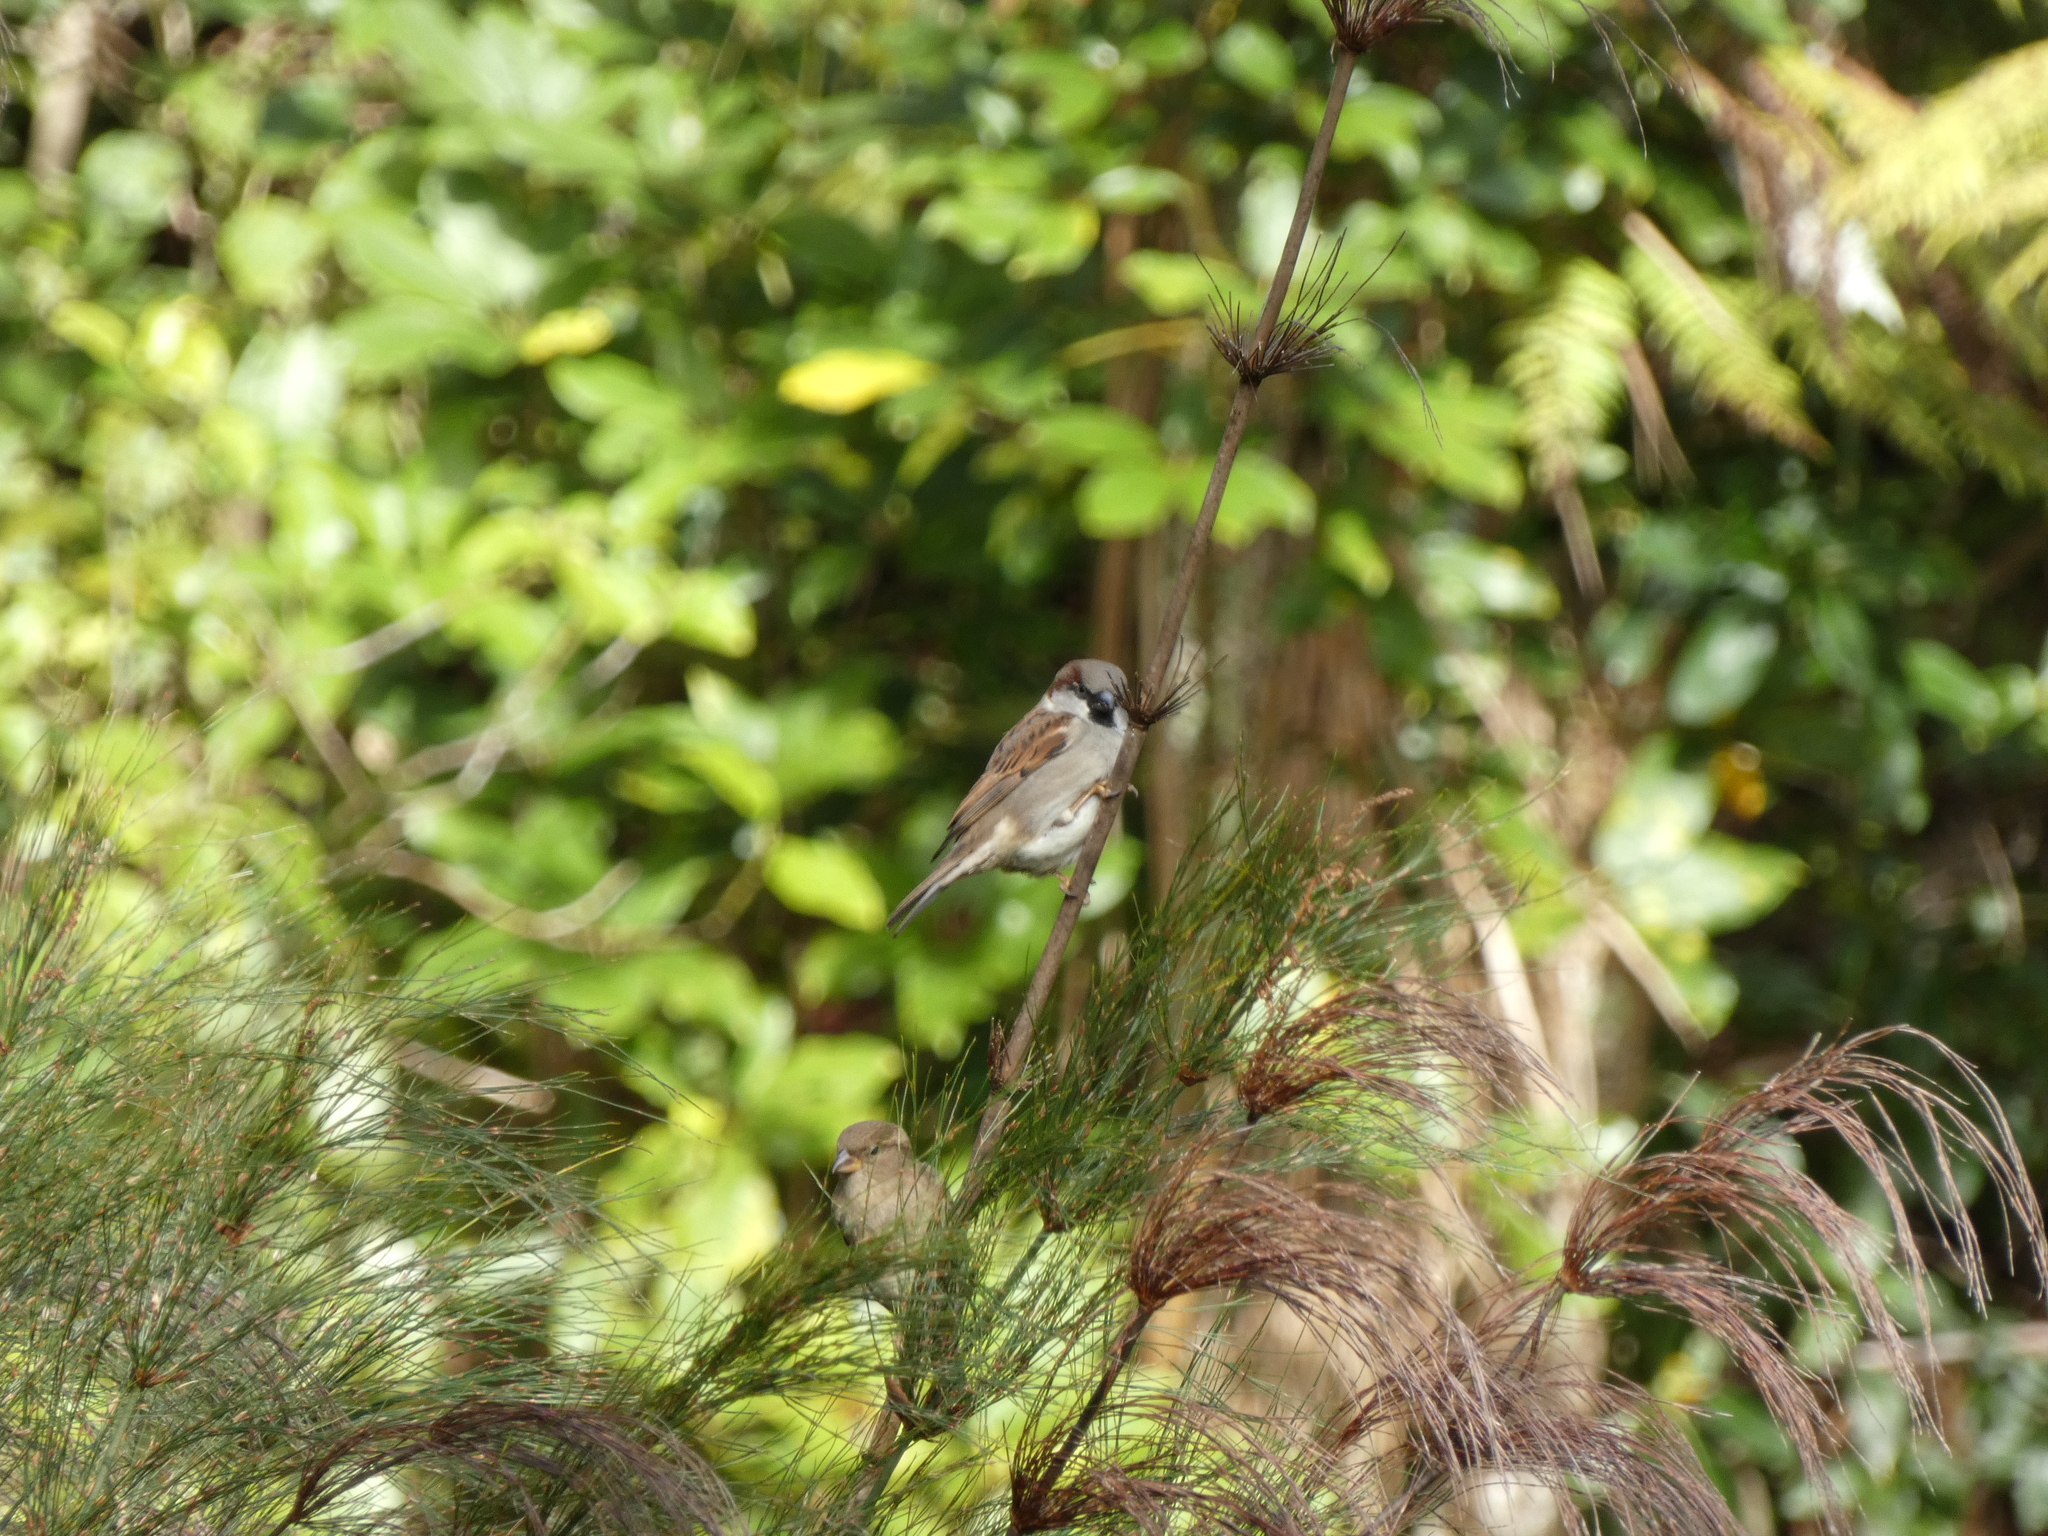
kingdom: Animalia
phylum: Chordata
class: Aves
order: Passeriformes
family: Passeridae
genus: Passer
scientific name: Passer domesticus
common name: House sparrow
